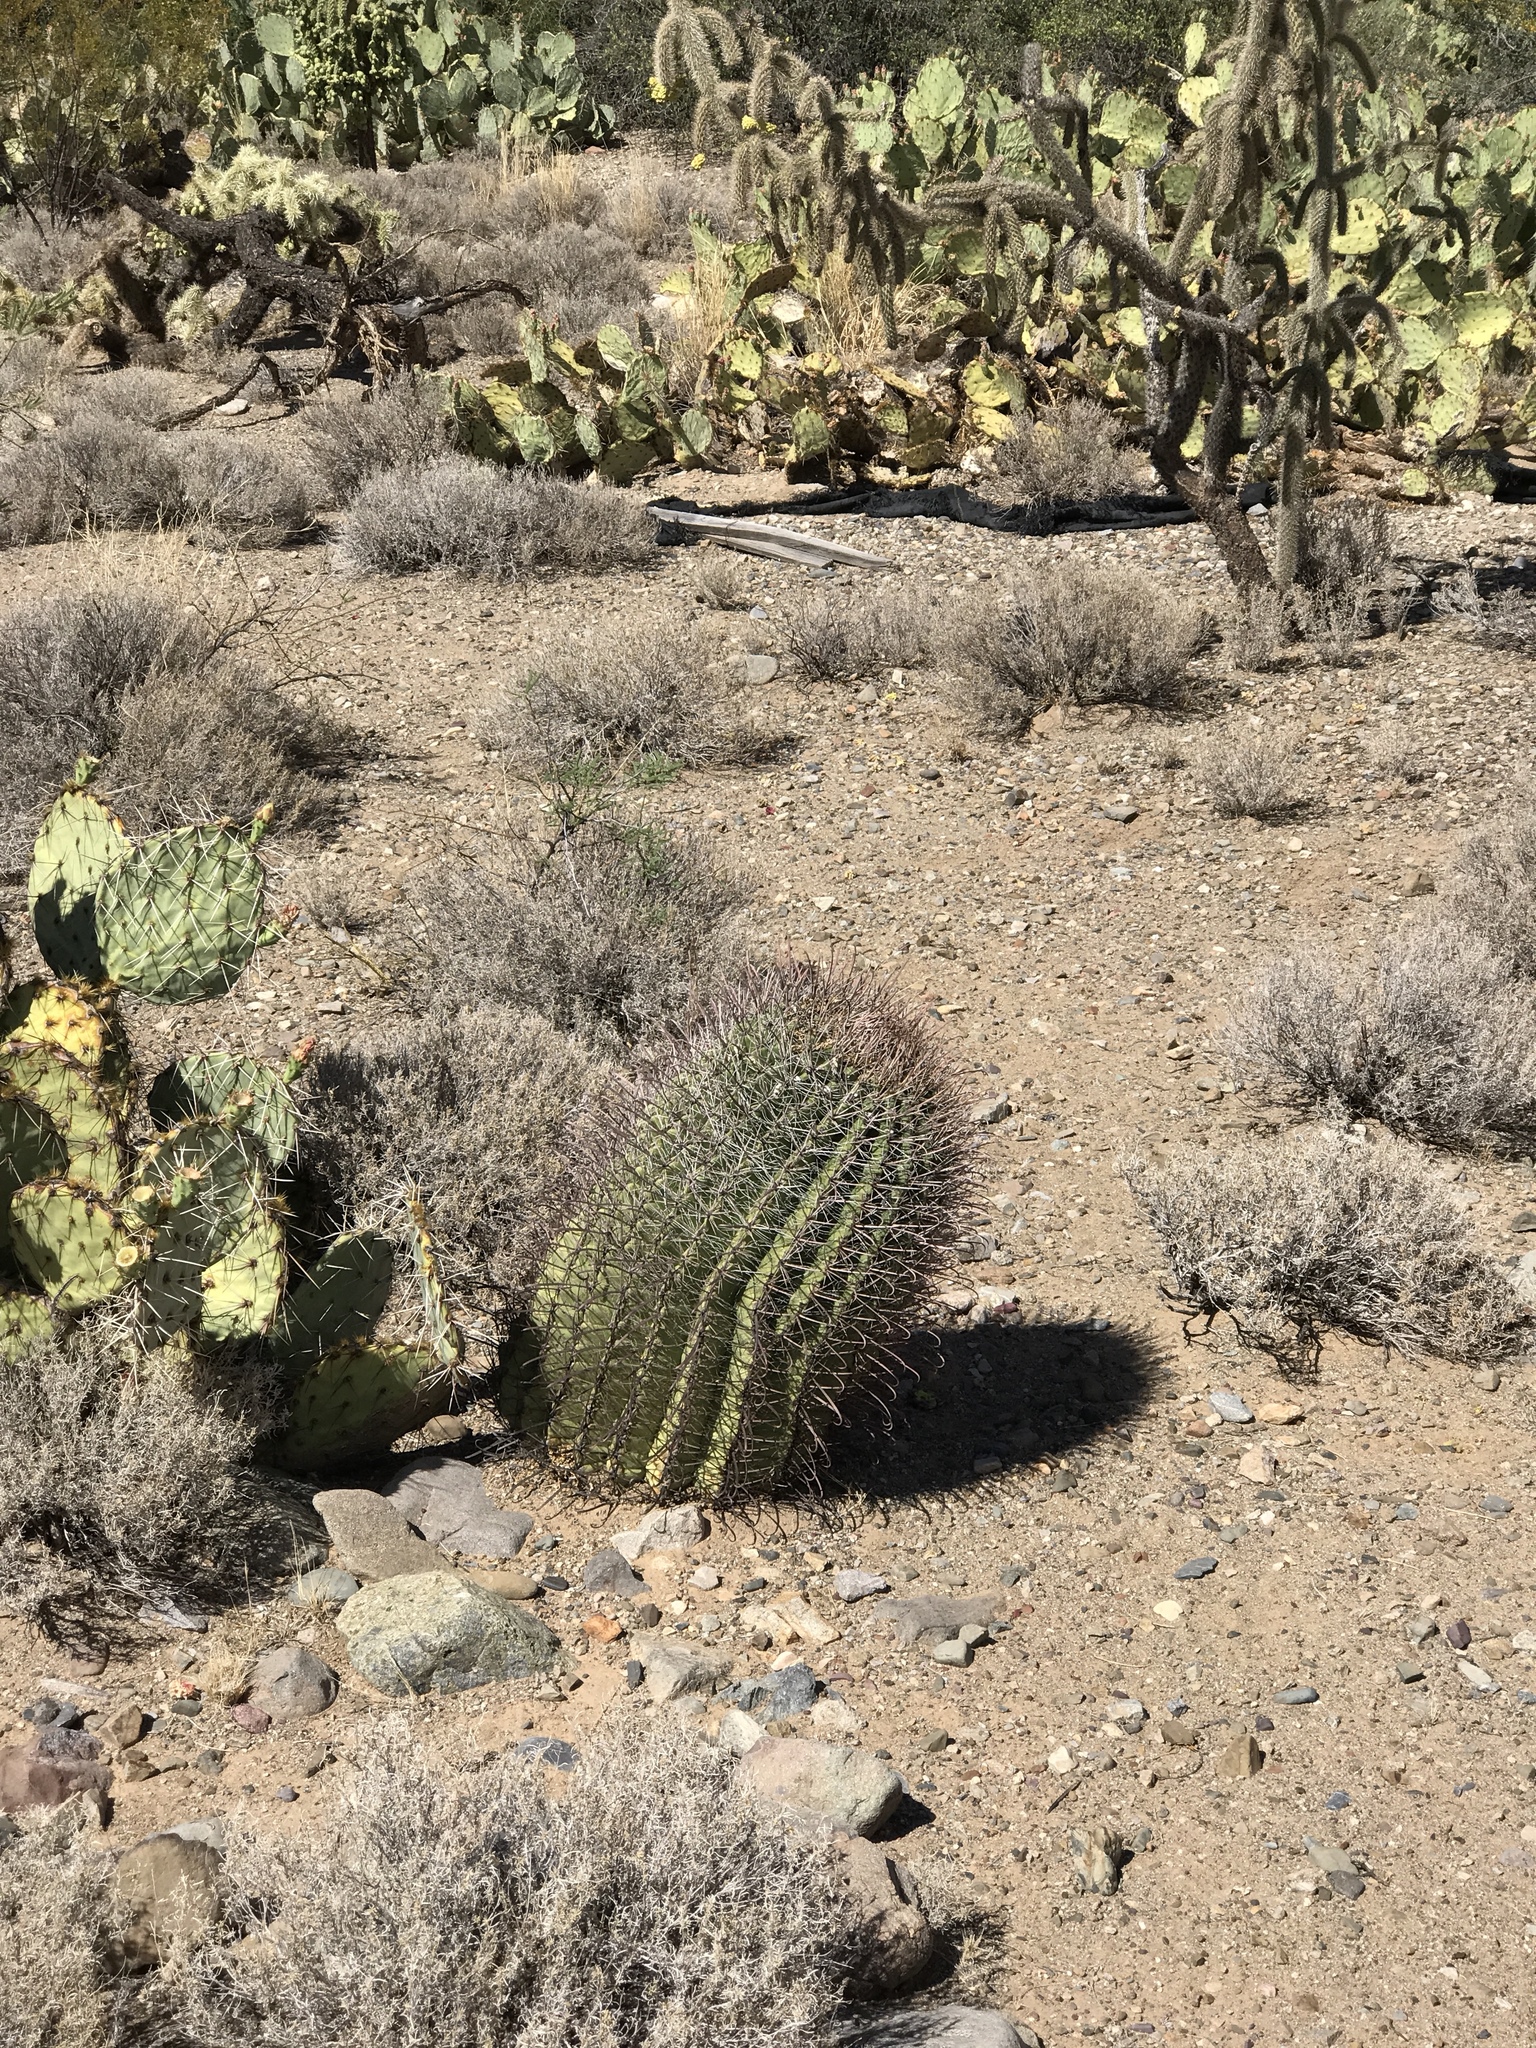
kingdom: Plantae
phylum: Tracheophyta
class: Magnoliopsida
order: Caryophyllales
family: Cactaceae
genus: Ferocactus
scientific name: Ferocactus wislizeni
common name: Candy barrel cactus
